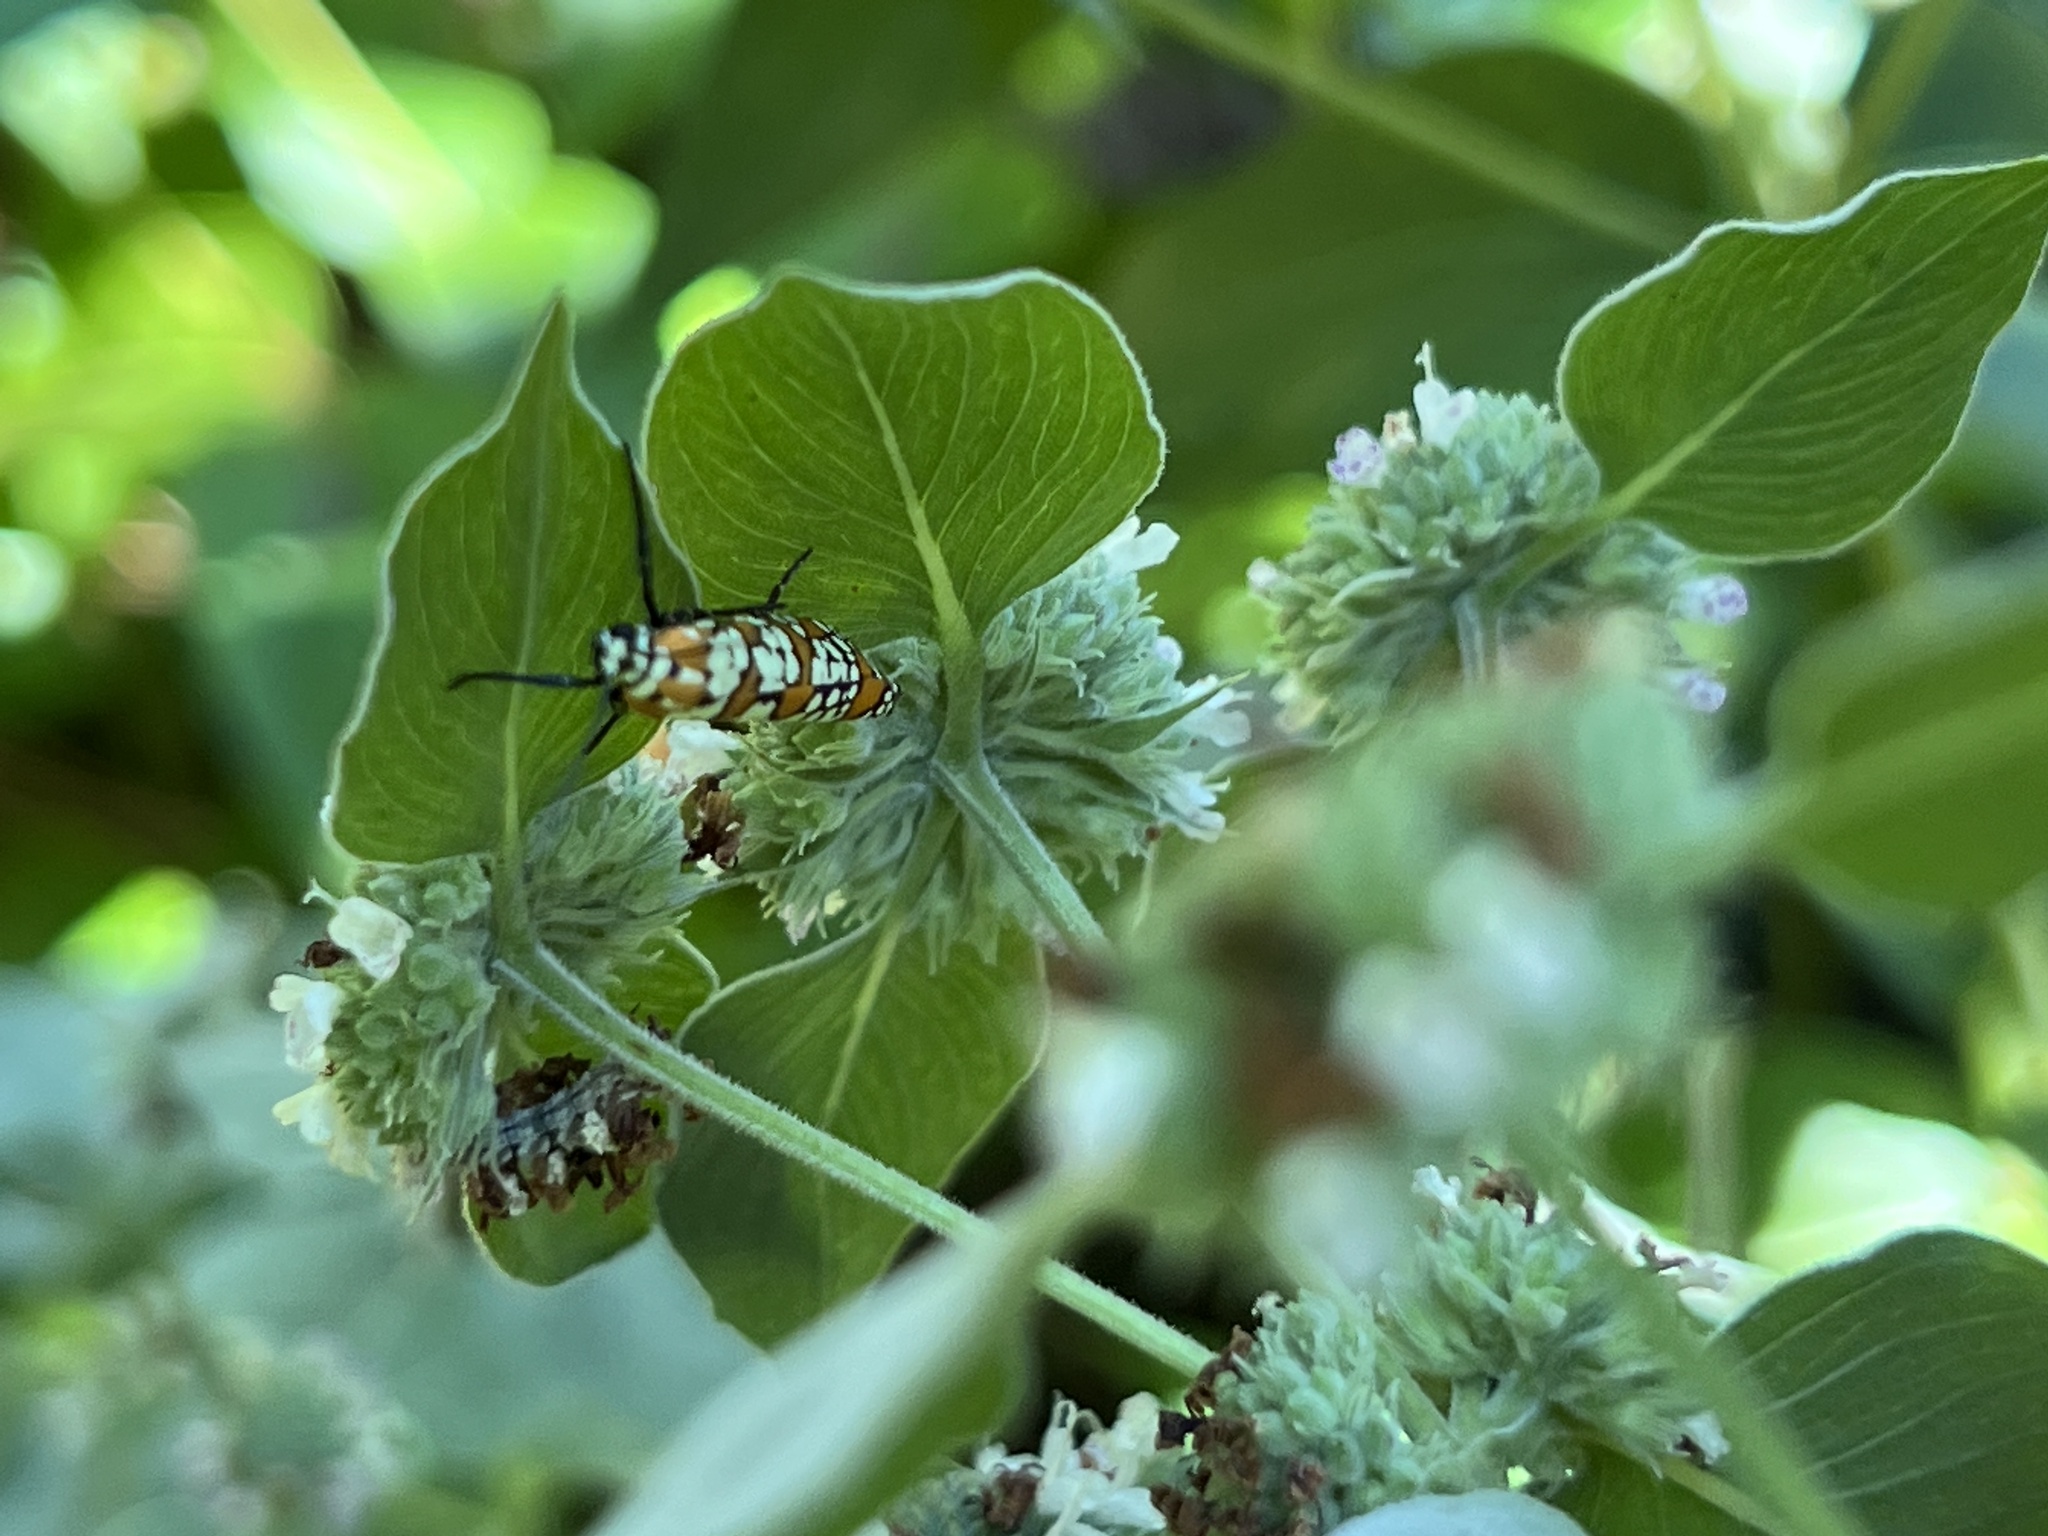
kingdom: Animalia
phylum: Arthropoda
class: Insecta
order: Lepidoptera
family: Attevidae
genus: Atteva
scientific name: Atteva punctella
